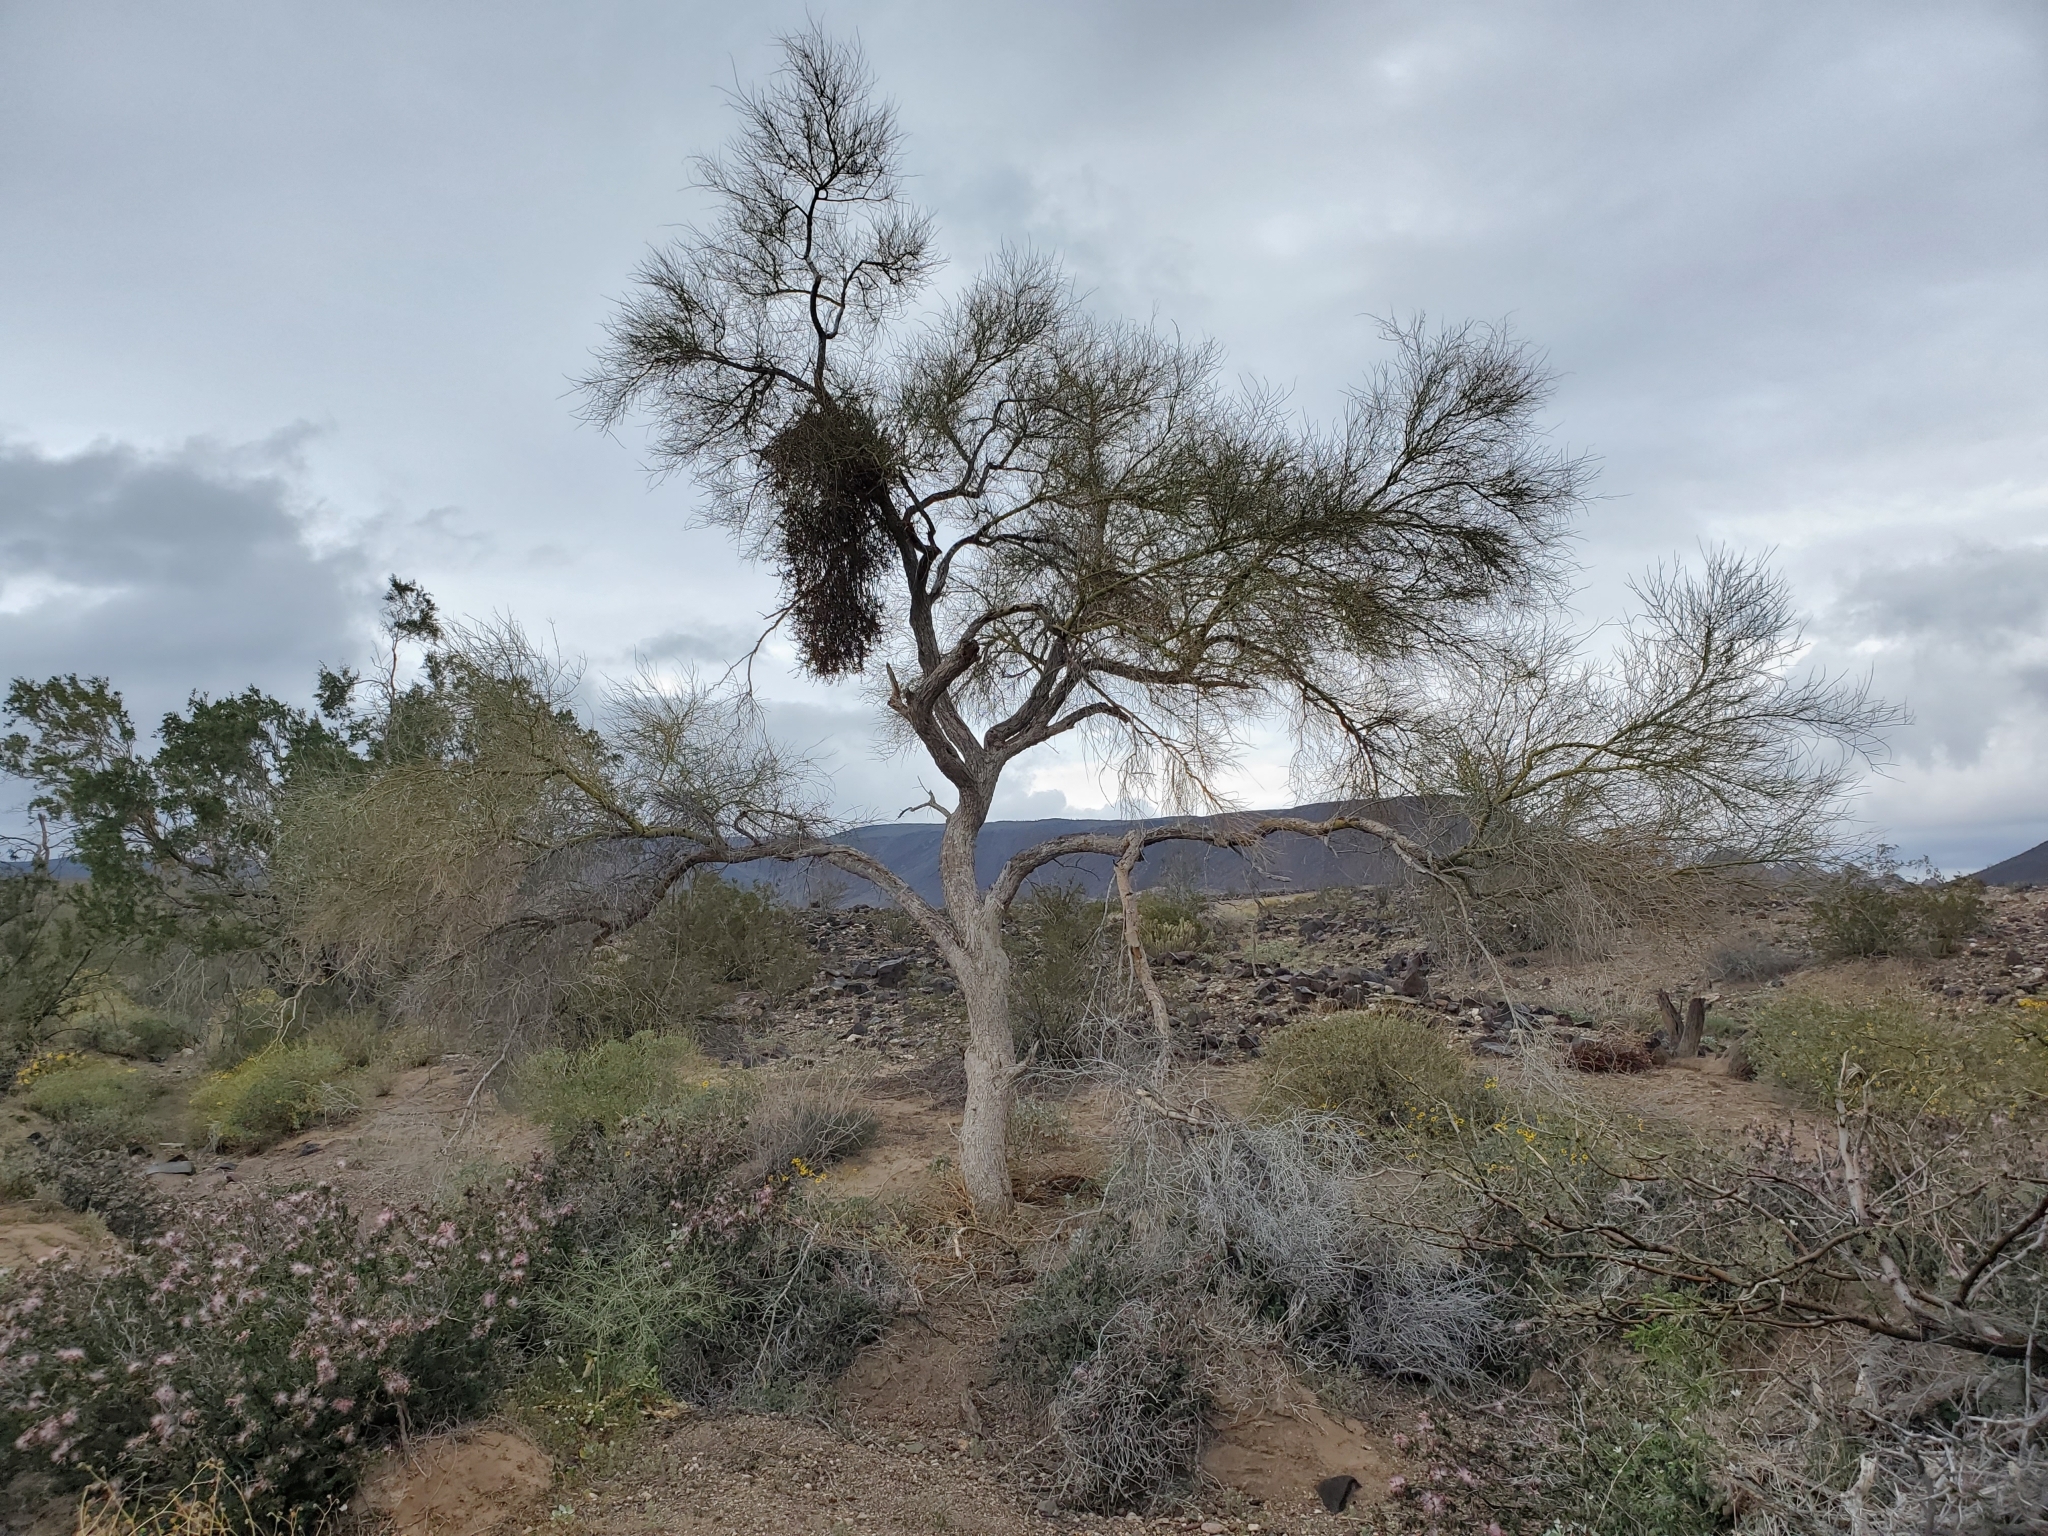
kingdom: Plantae
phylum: Tracheophyta
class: Magnoliopsida
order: Santalales
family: Viscaceae
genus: Phoradendron
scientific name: Phoradendron californicum
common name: Acacia mistletoe
